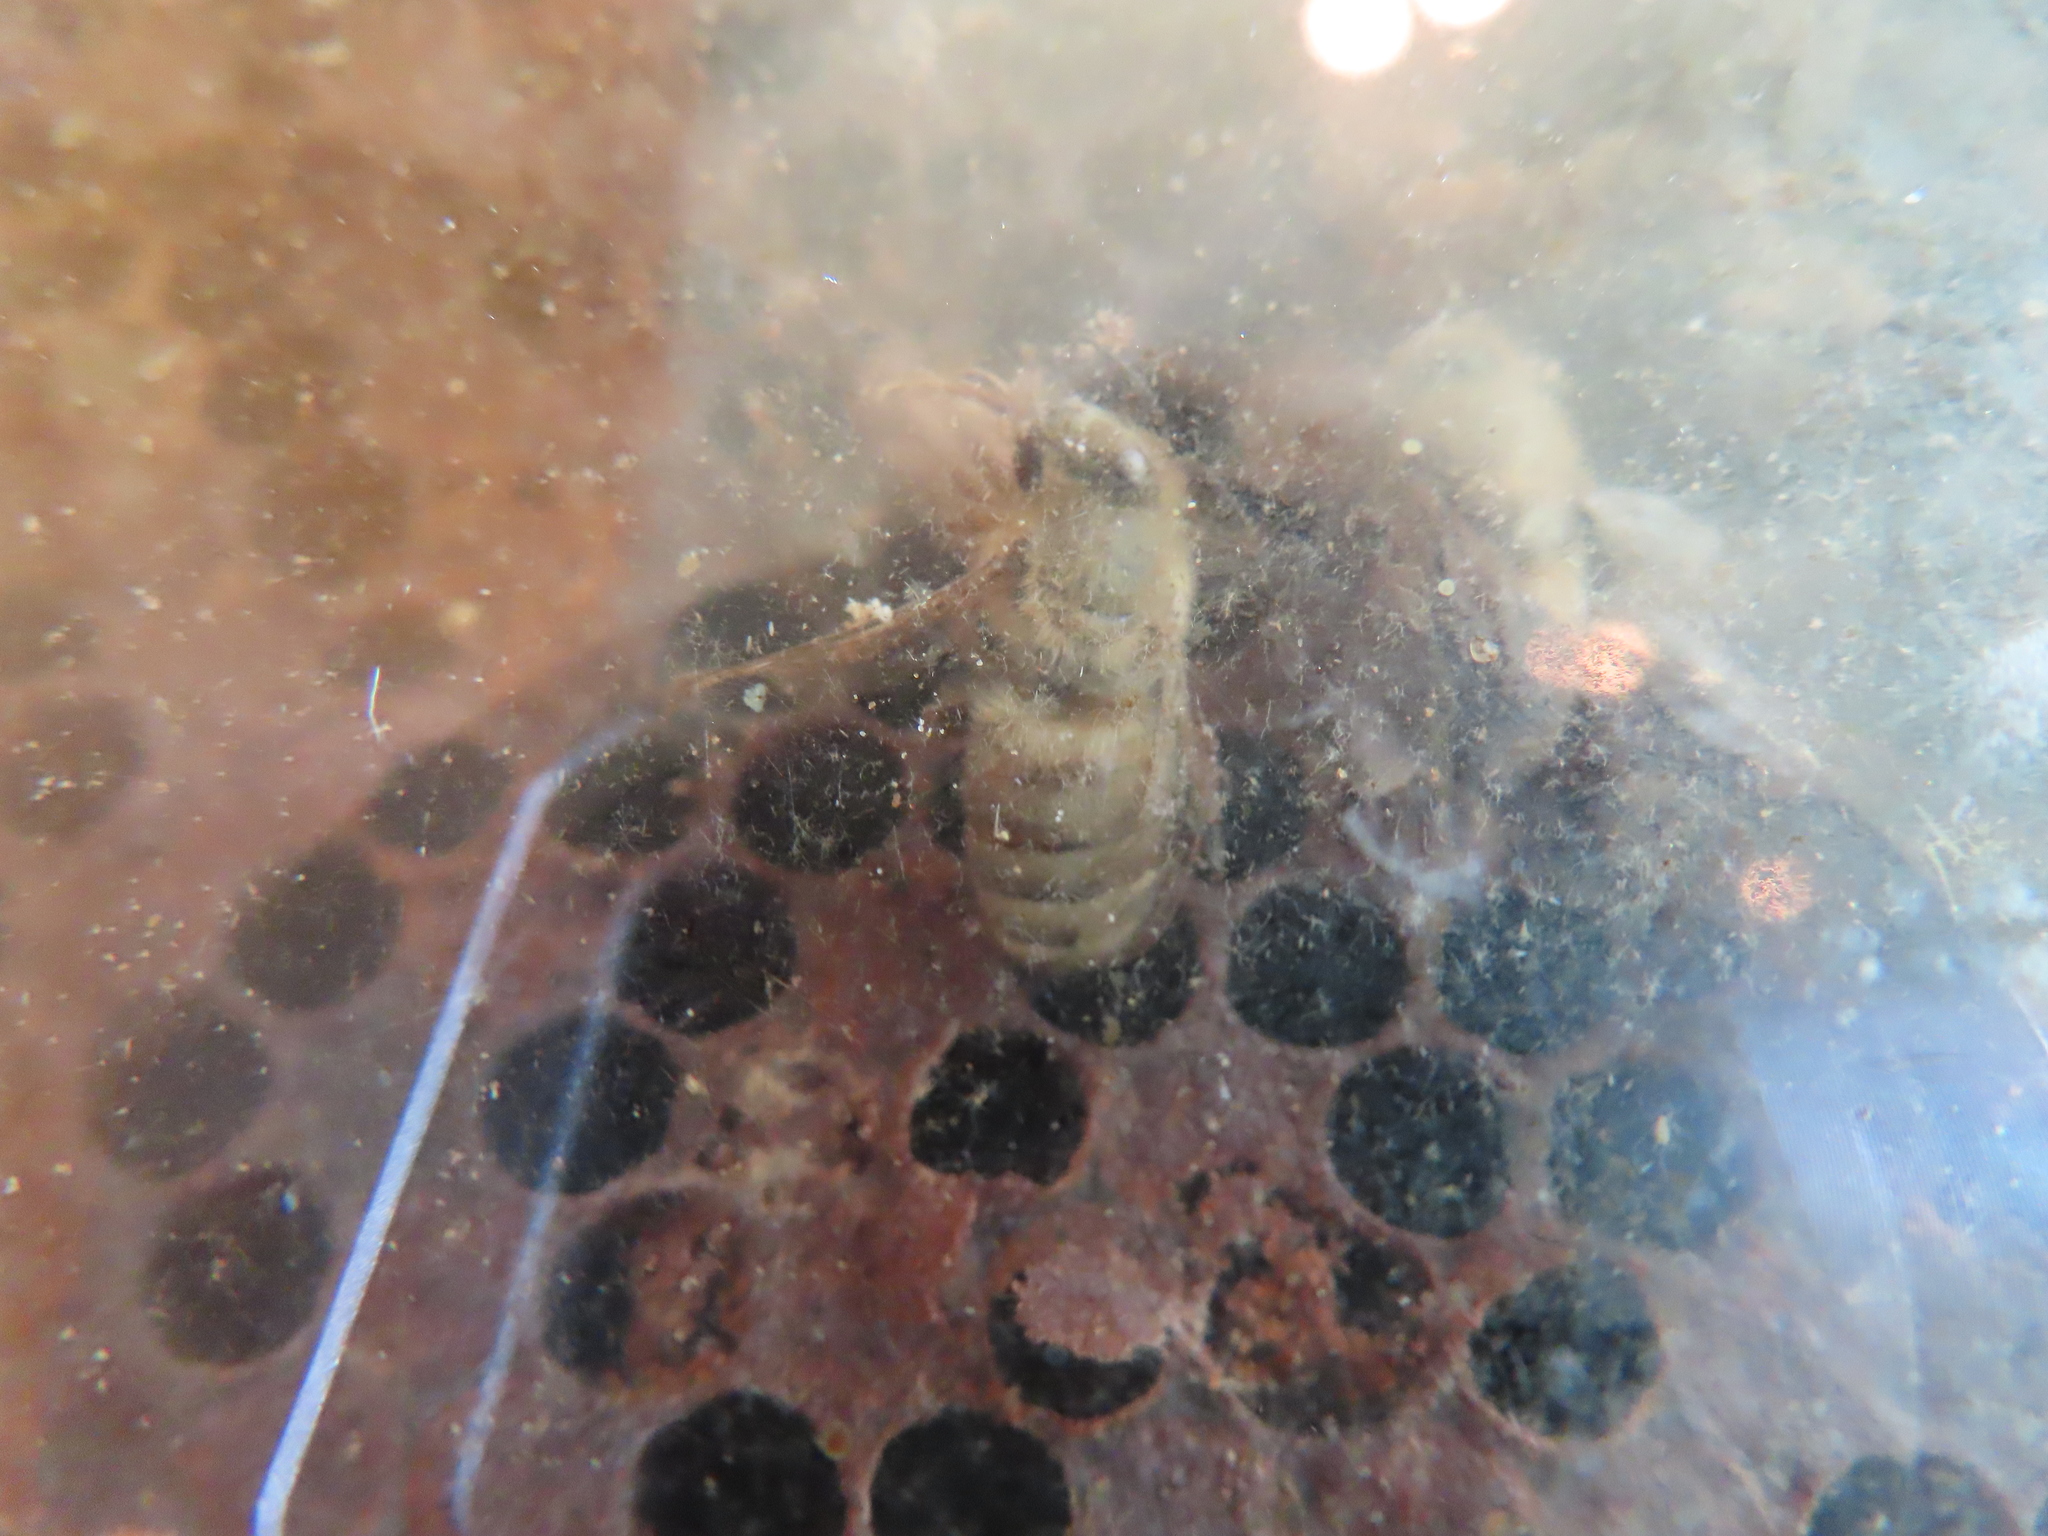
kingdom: Animalia
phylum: Arthropoda
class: Insecta
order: Hymenoptera
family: Apidae
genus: Apis
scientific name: Apis mellifera
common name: Honey bee
